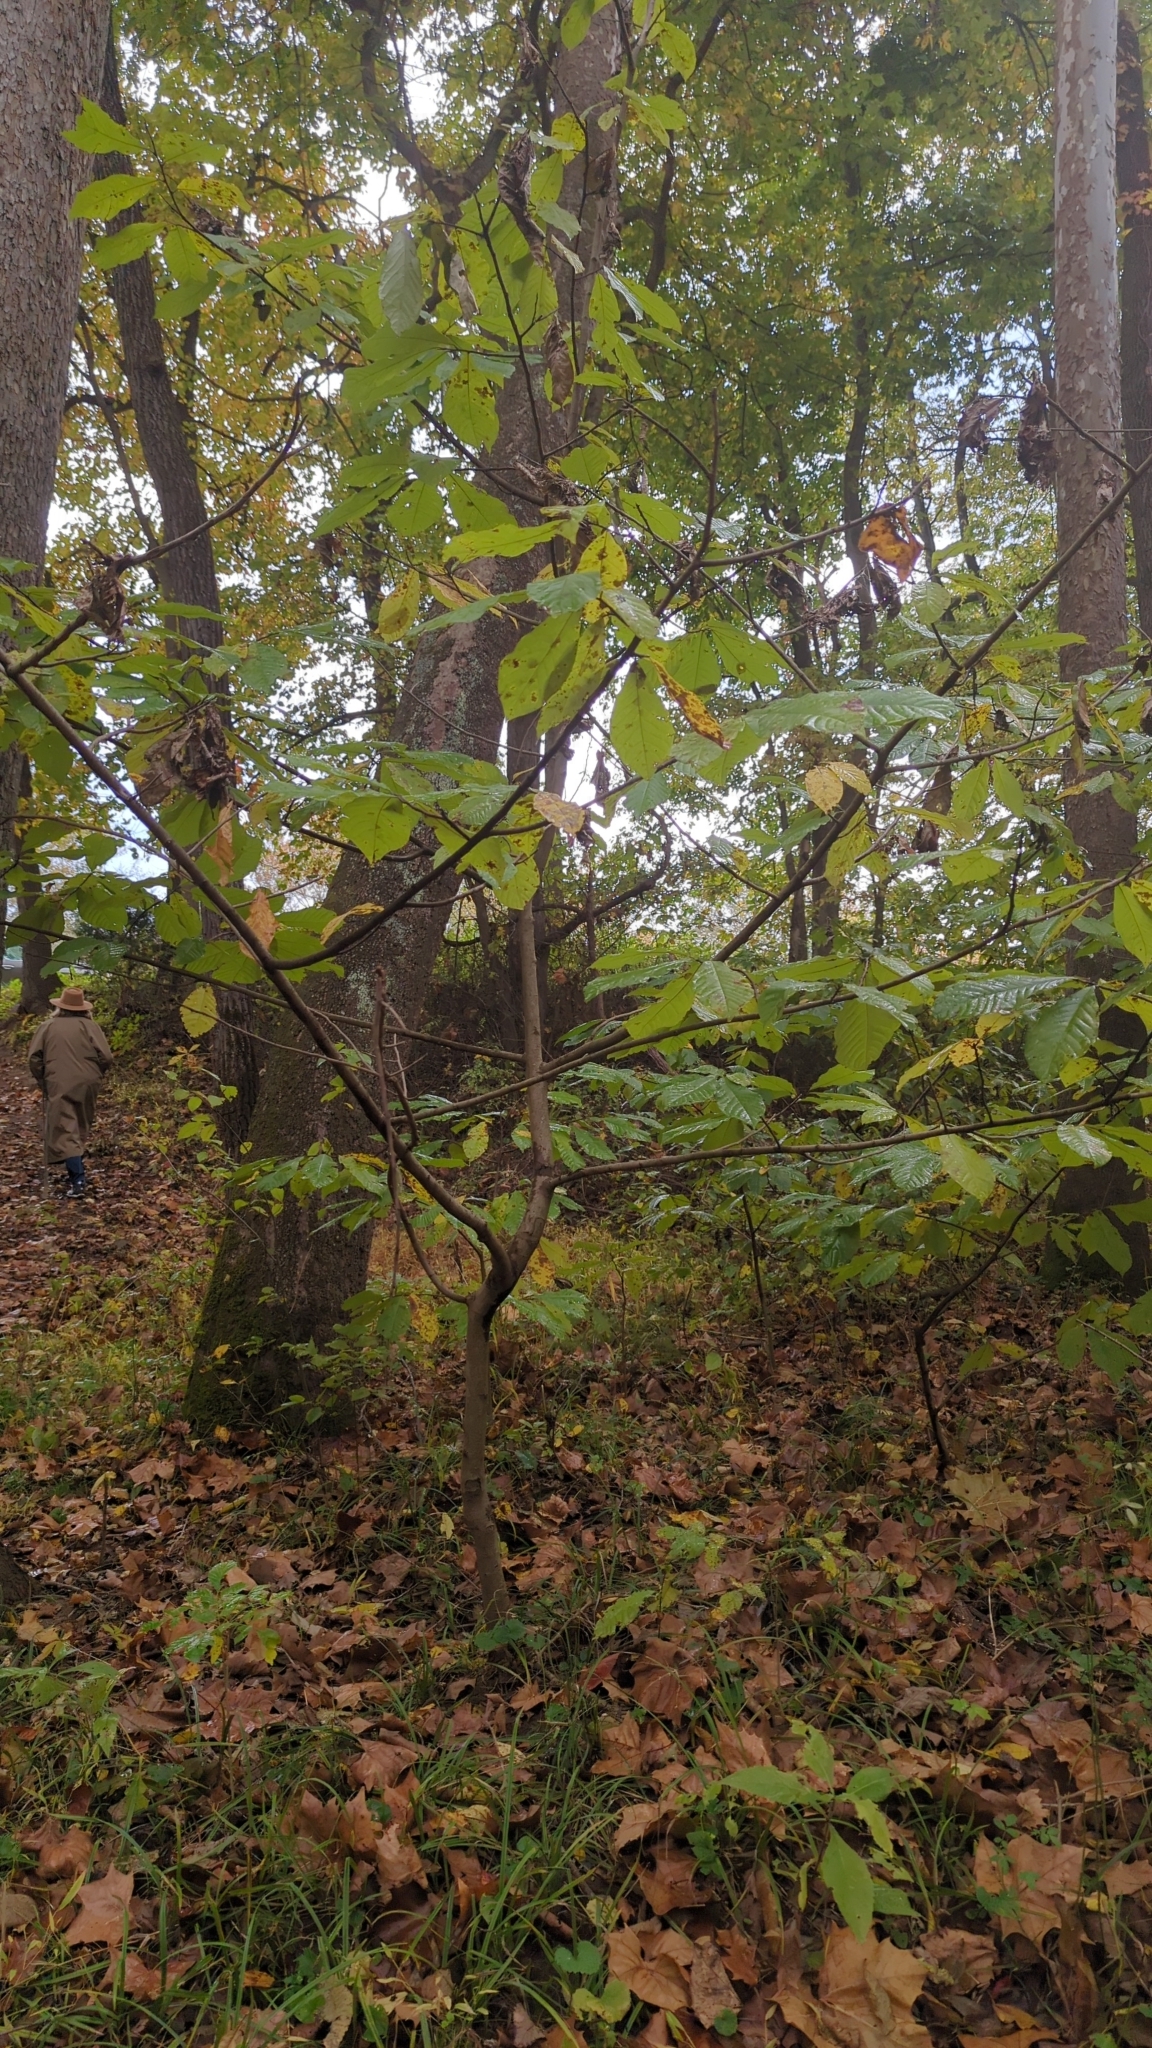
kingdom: Plantae
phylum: Tracheophyta
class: Magnoliopsida
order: Magnoliales
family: Annonaceae
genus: Asimina
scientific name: Asimina triloba
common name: Dog-banana
